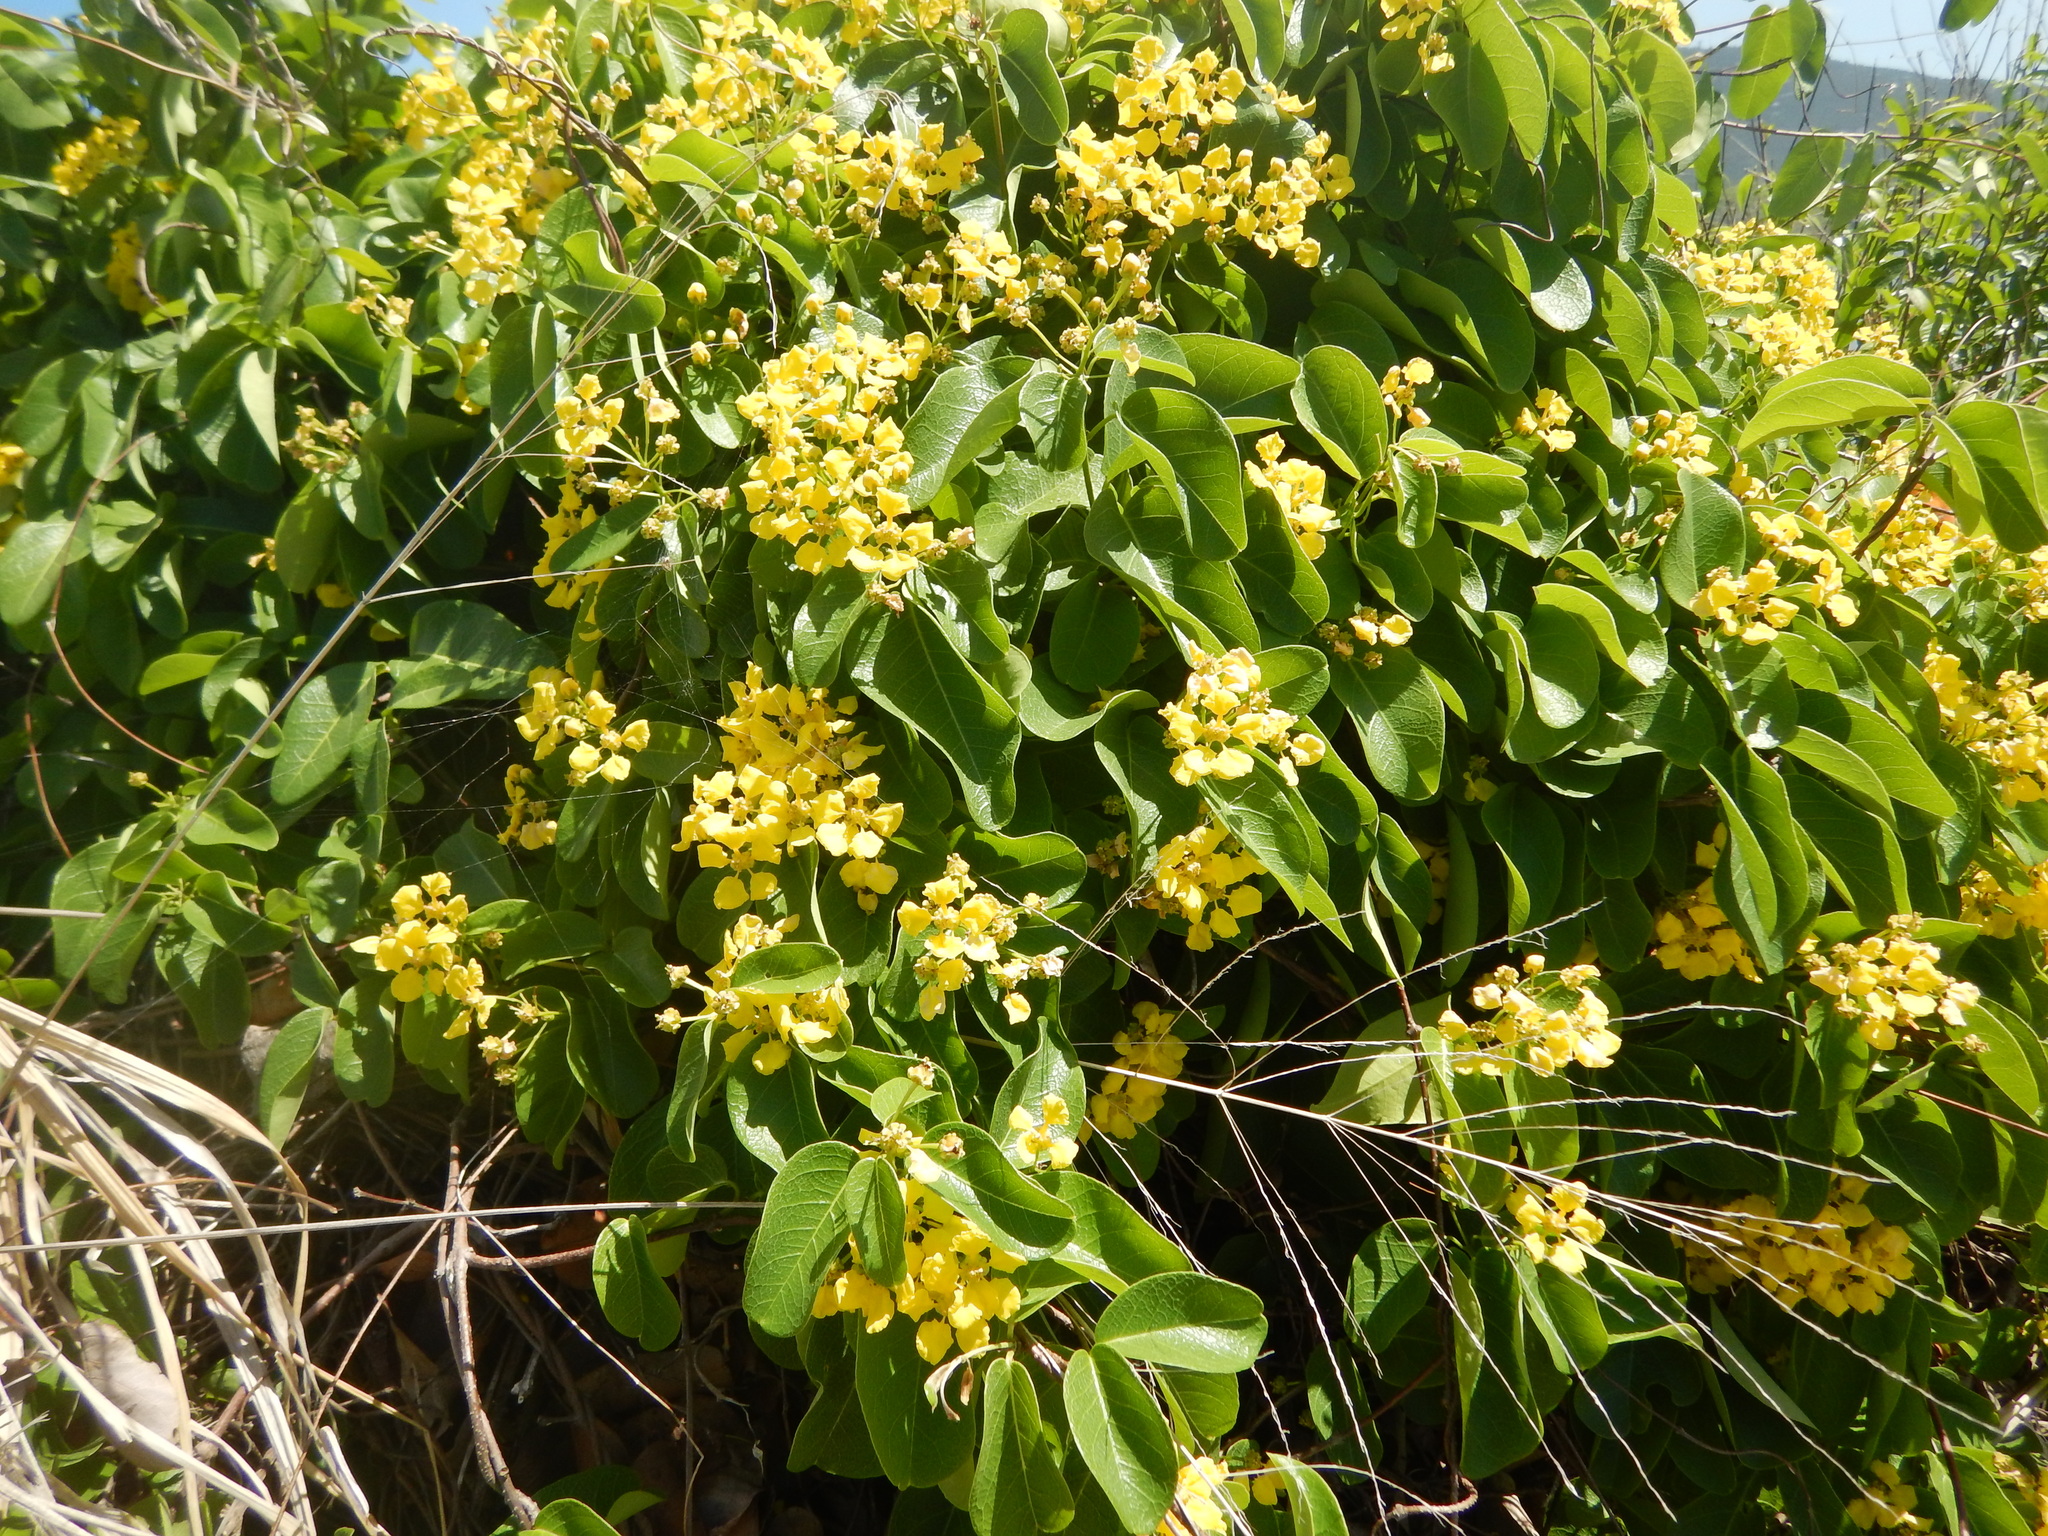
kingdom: Plantae
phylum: Tracheophyta
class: Magnoliopsida
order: Malpighiales
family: Malpighiaceae
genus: Stigmaphyllon
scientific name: Stigmaphyllon emarginatum
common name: Monarch amazonvine
